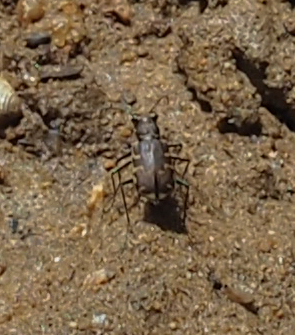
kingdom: Animalia
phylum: Arthropoda
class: Insecta
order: Coleoptera
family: Carabidae
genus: Cicindela
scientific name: Cicindela repanda
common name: Bronzed tiger beetle
